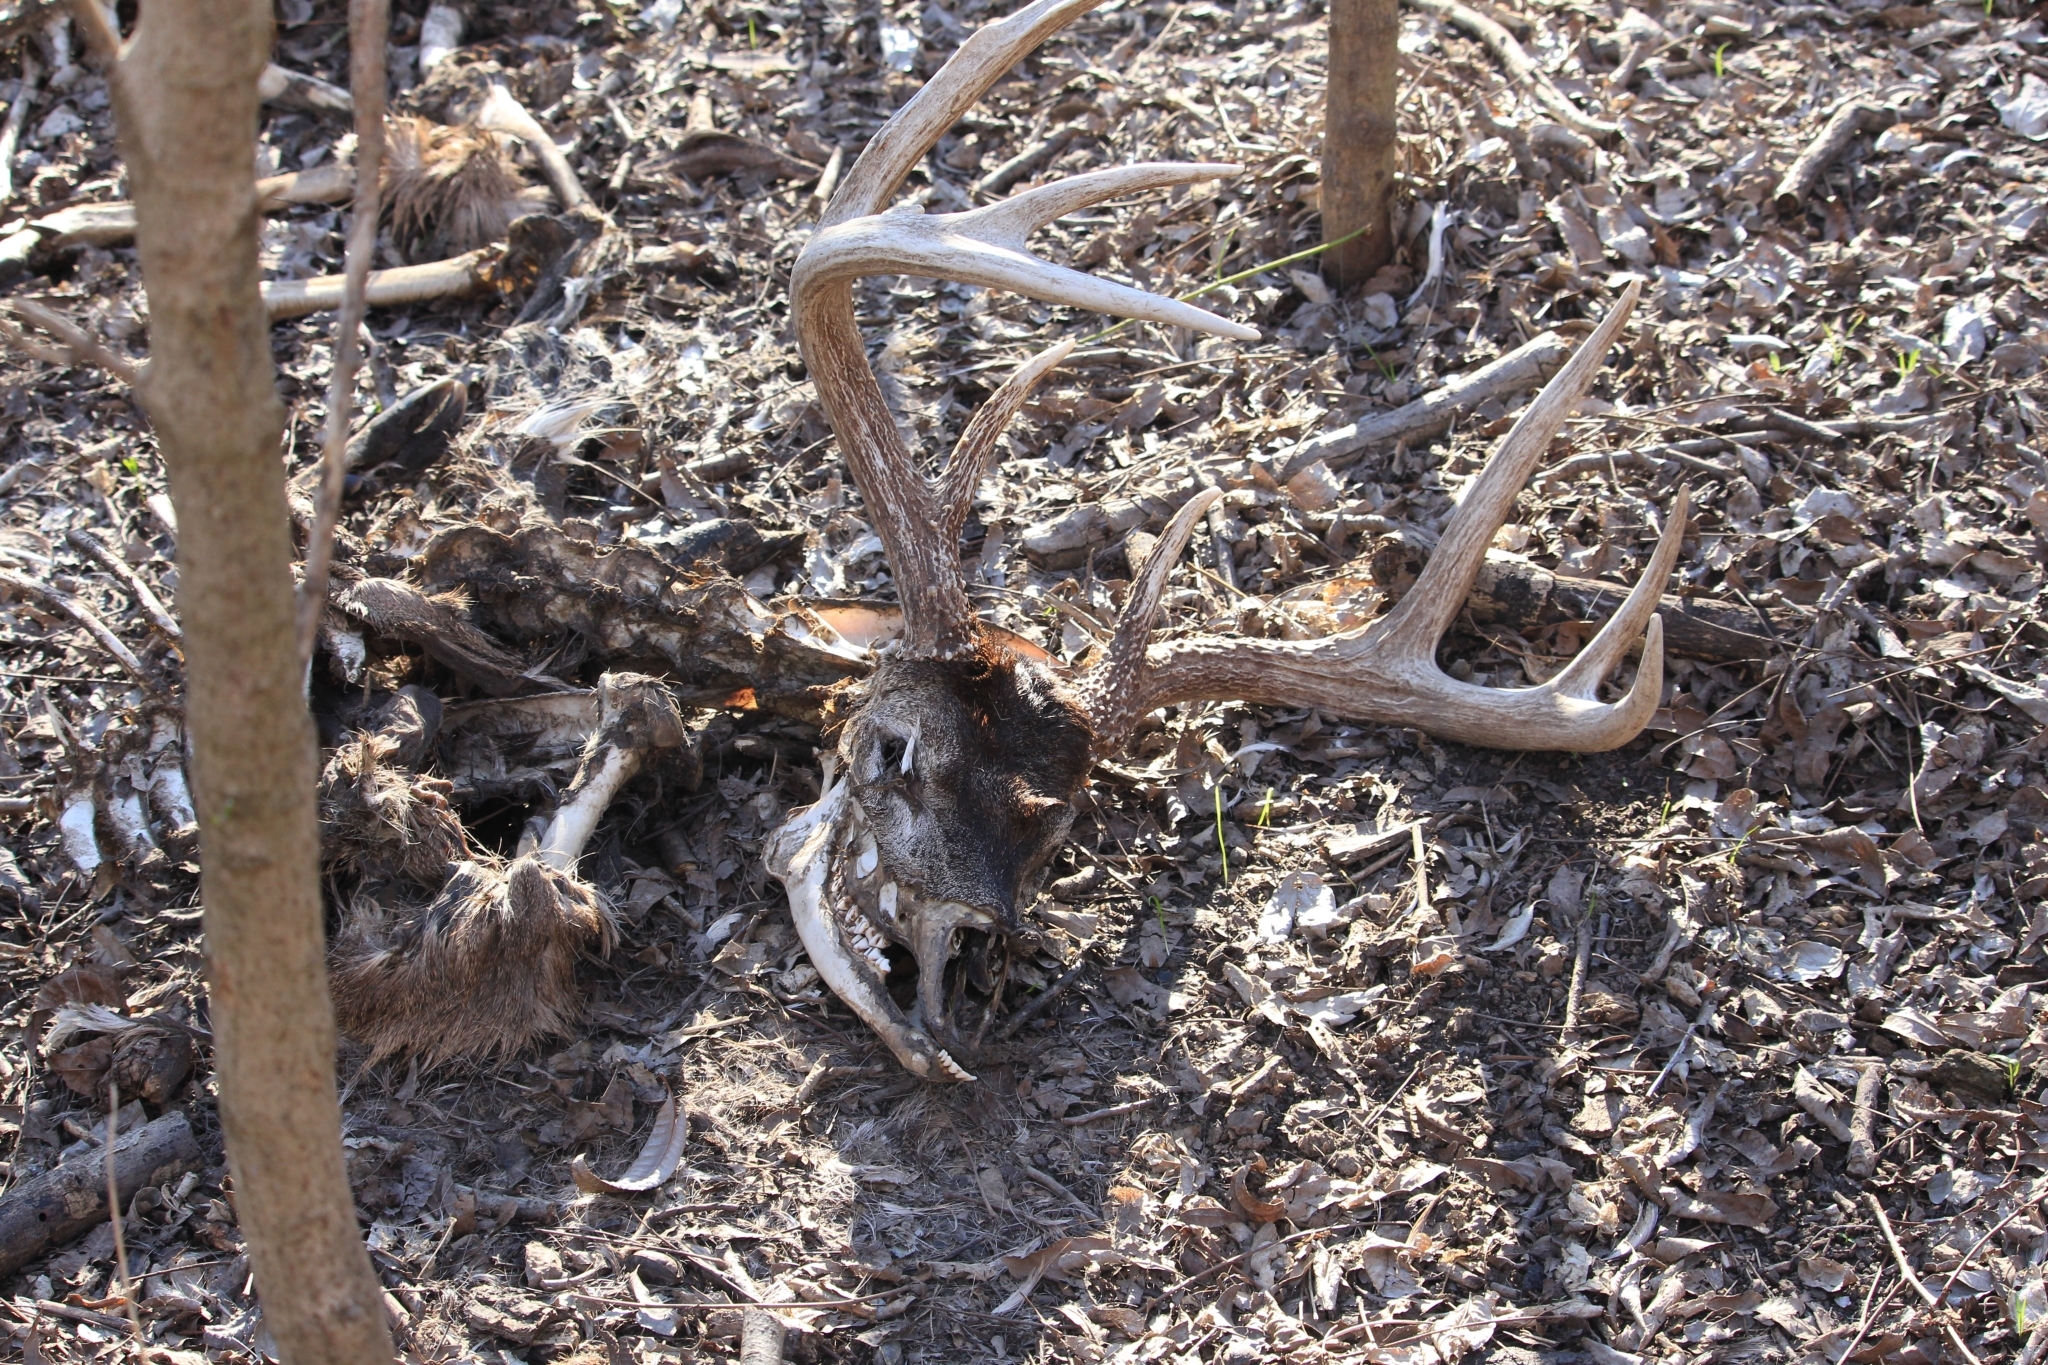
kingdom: Animalia
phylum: Chordata
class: Mammalia
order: Artiodactyla
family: Cervidae
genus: Odocoileus
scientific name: Odocoileus virginianus
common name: White-tailed deer
